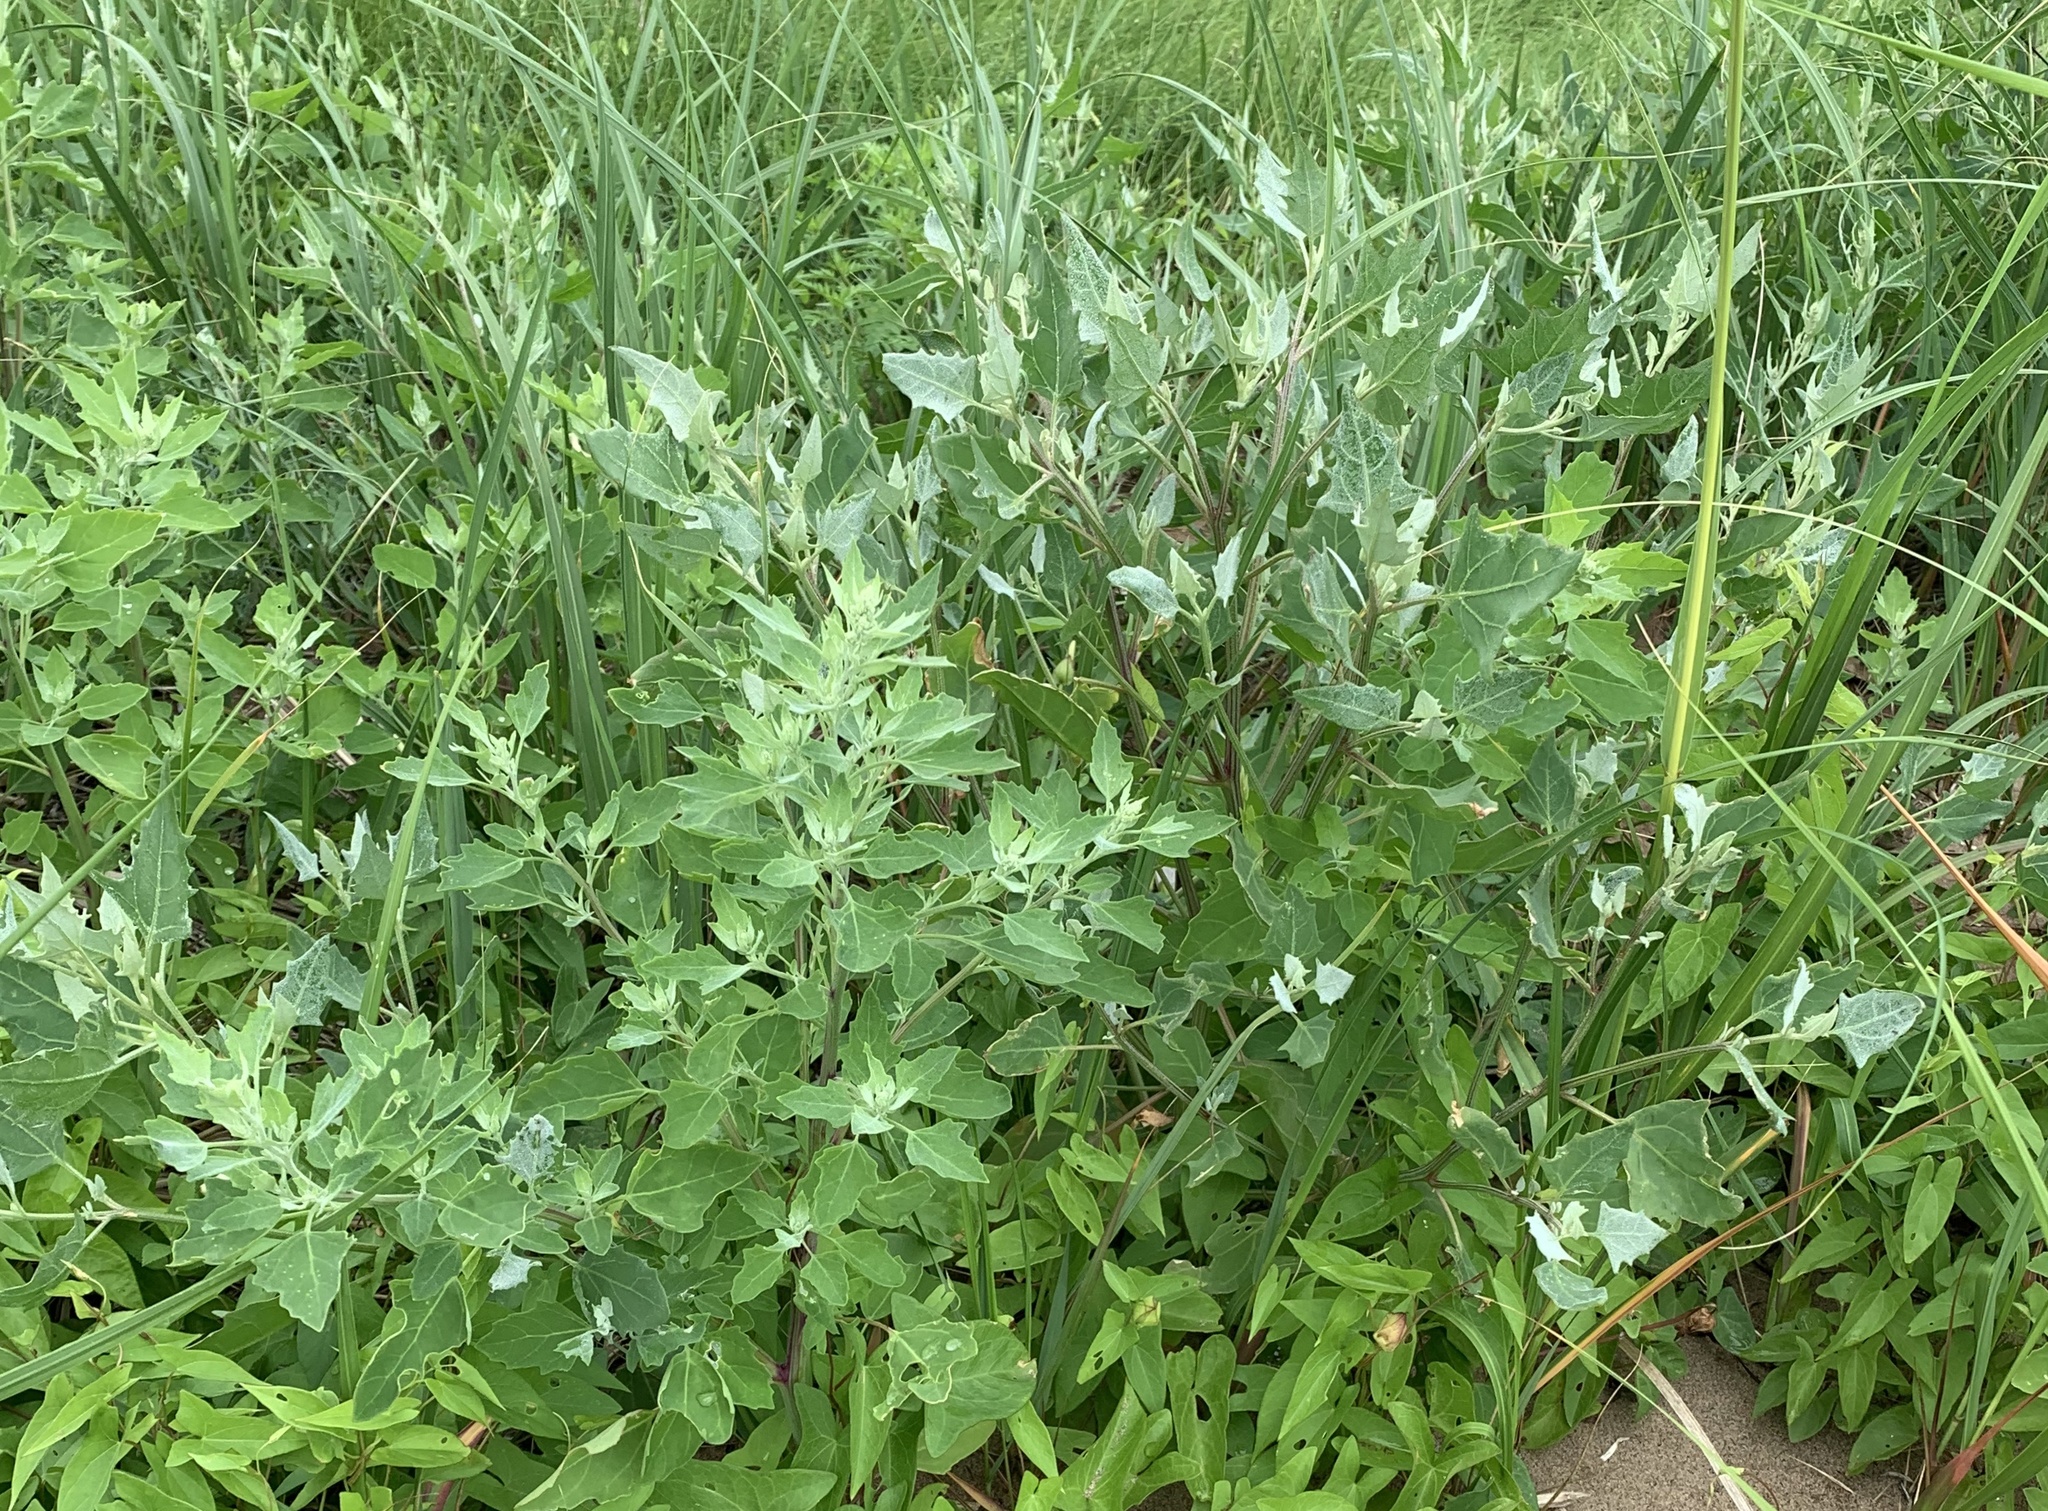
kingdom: Plantae
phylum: Tracheophyta
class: Magnoliopsida
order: Caryophyllales
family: Amaranthaceae
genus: Chenopodium
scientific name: Chenopodium album
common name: Fat-hen
